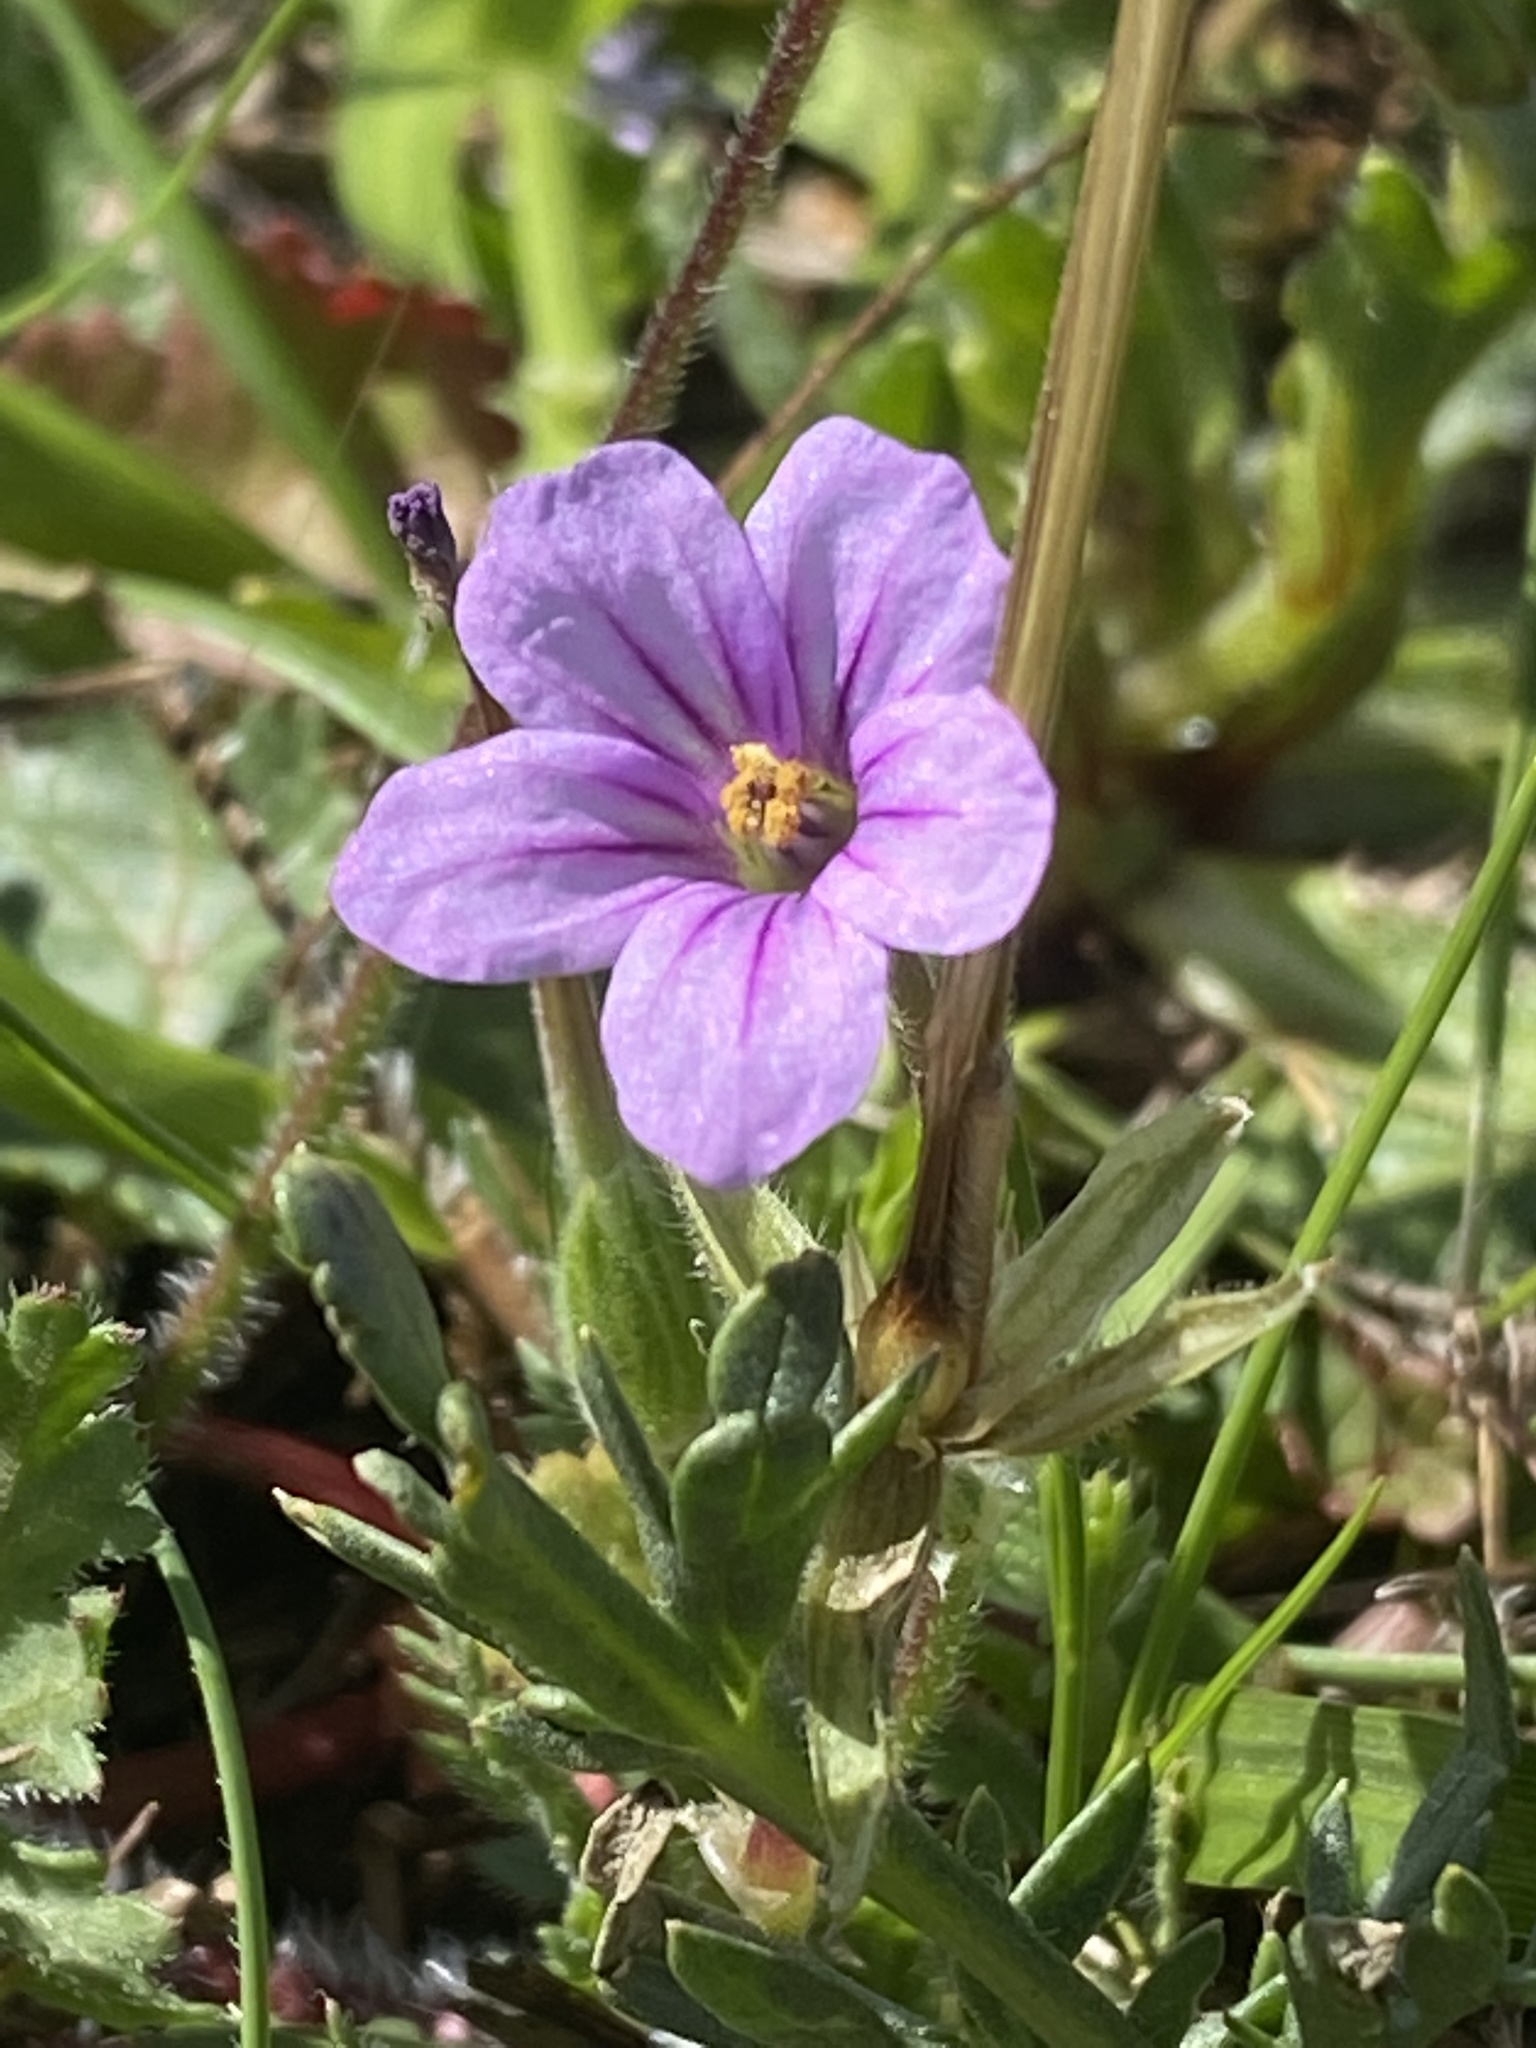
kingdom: Plantae
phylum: Tracheophyta
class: Magnoliopsida
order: Geraniales
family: Geraniaceae
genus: Erodium
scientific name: Erodium botrys
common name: Mediterranean stork's-bill
